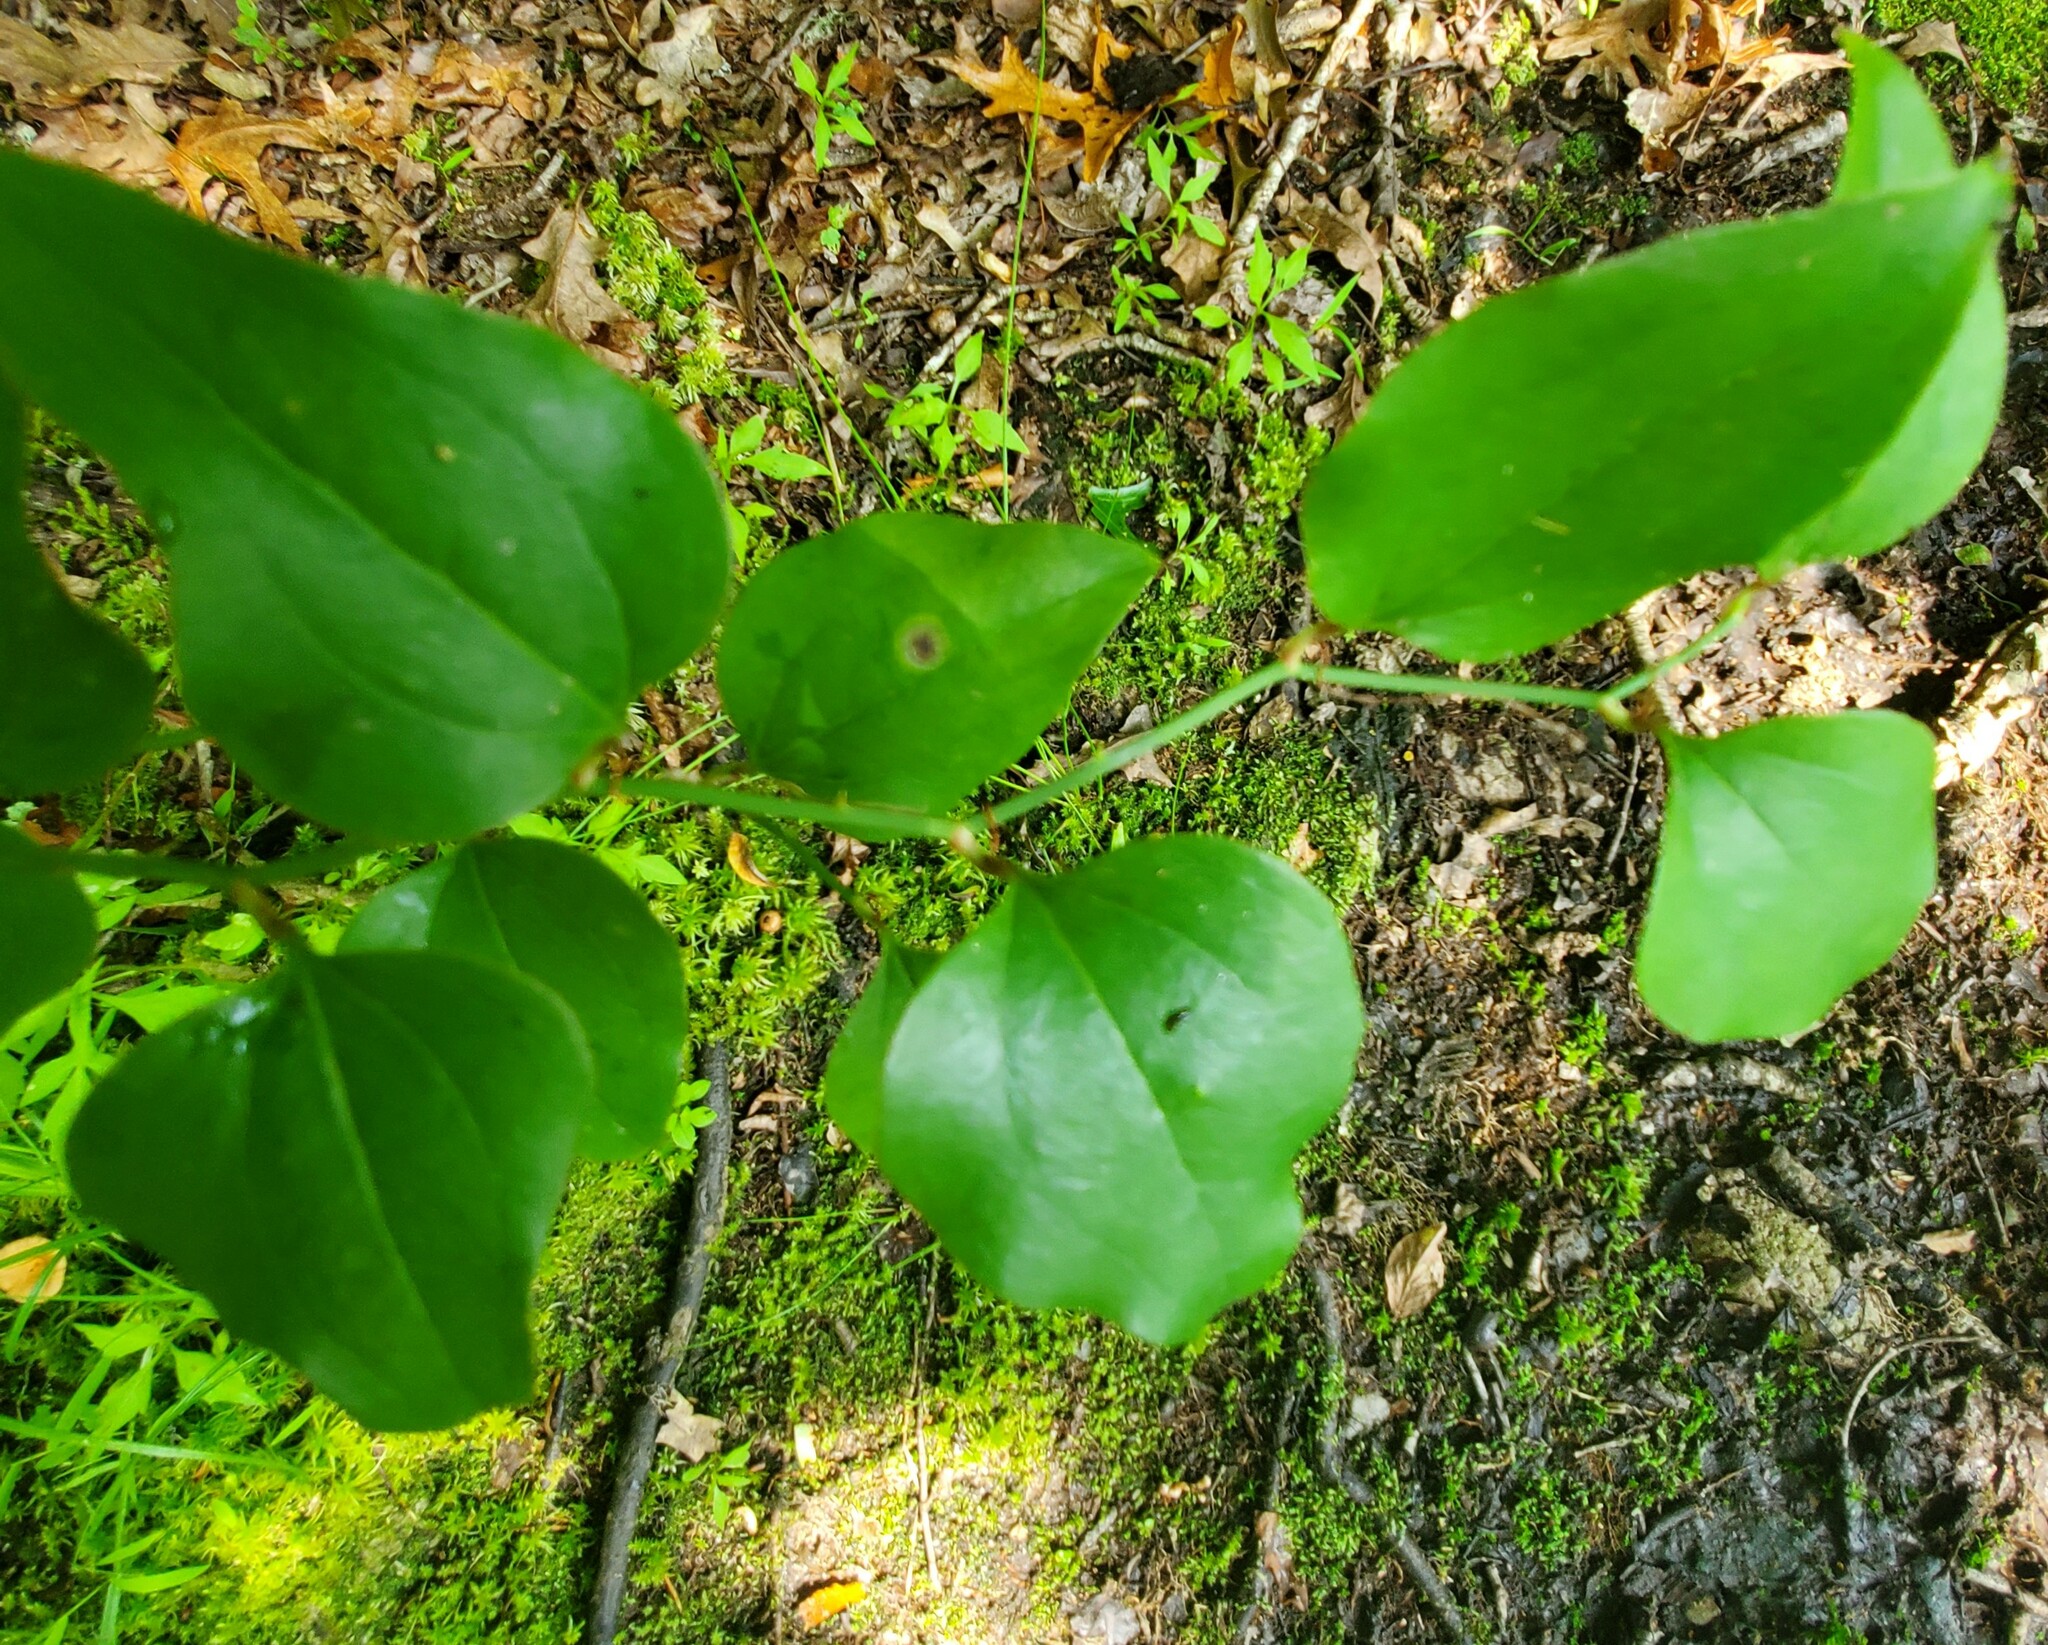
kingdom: Plantae
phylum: Tracheophyta
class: Liliopsida
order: Liliales
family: Smilacaceae
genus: Smilax
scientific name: Smilax rotundifolia
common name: Bullbriar
